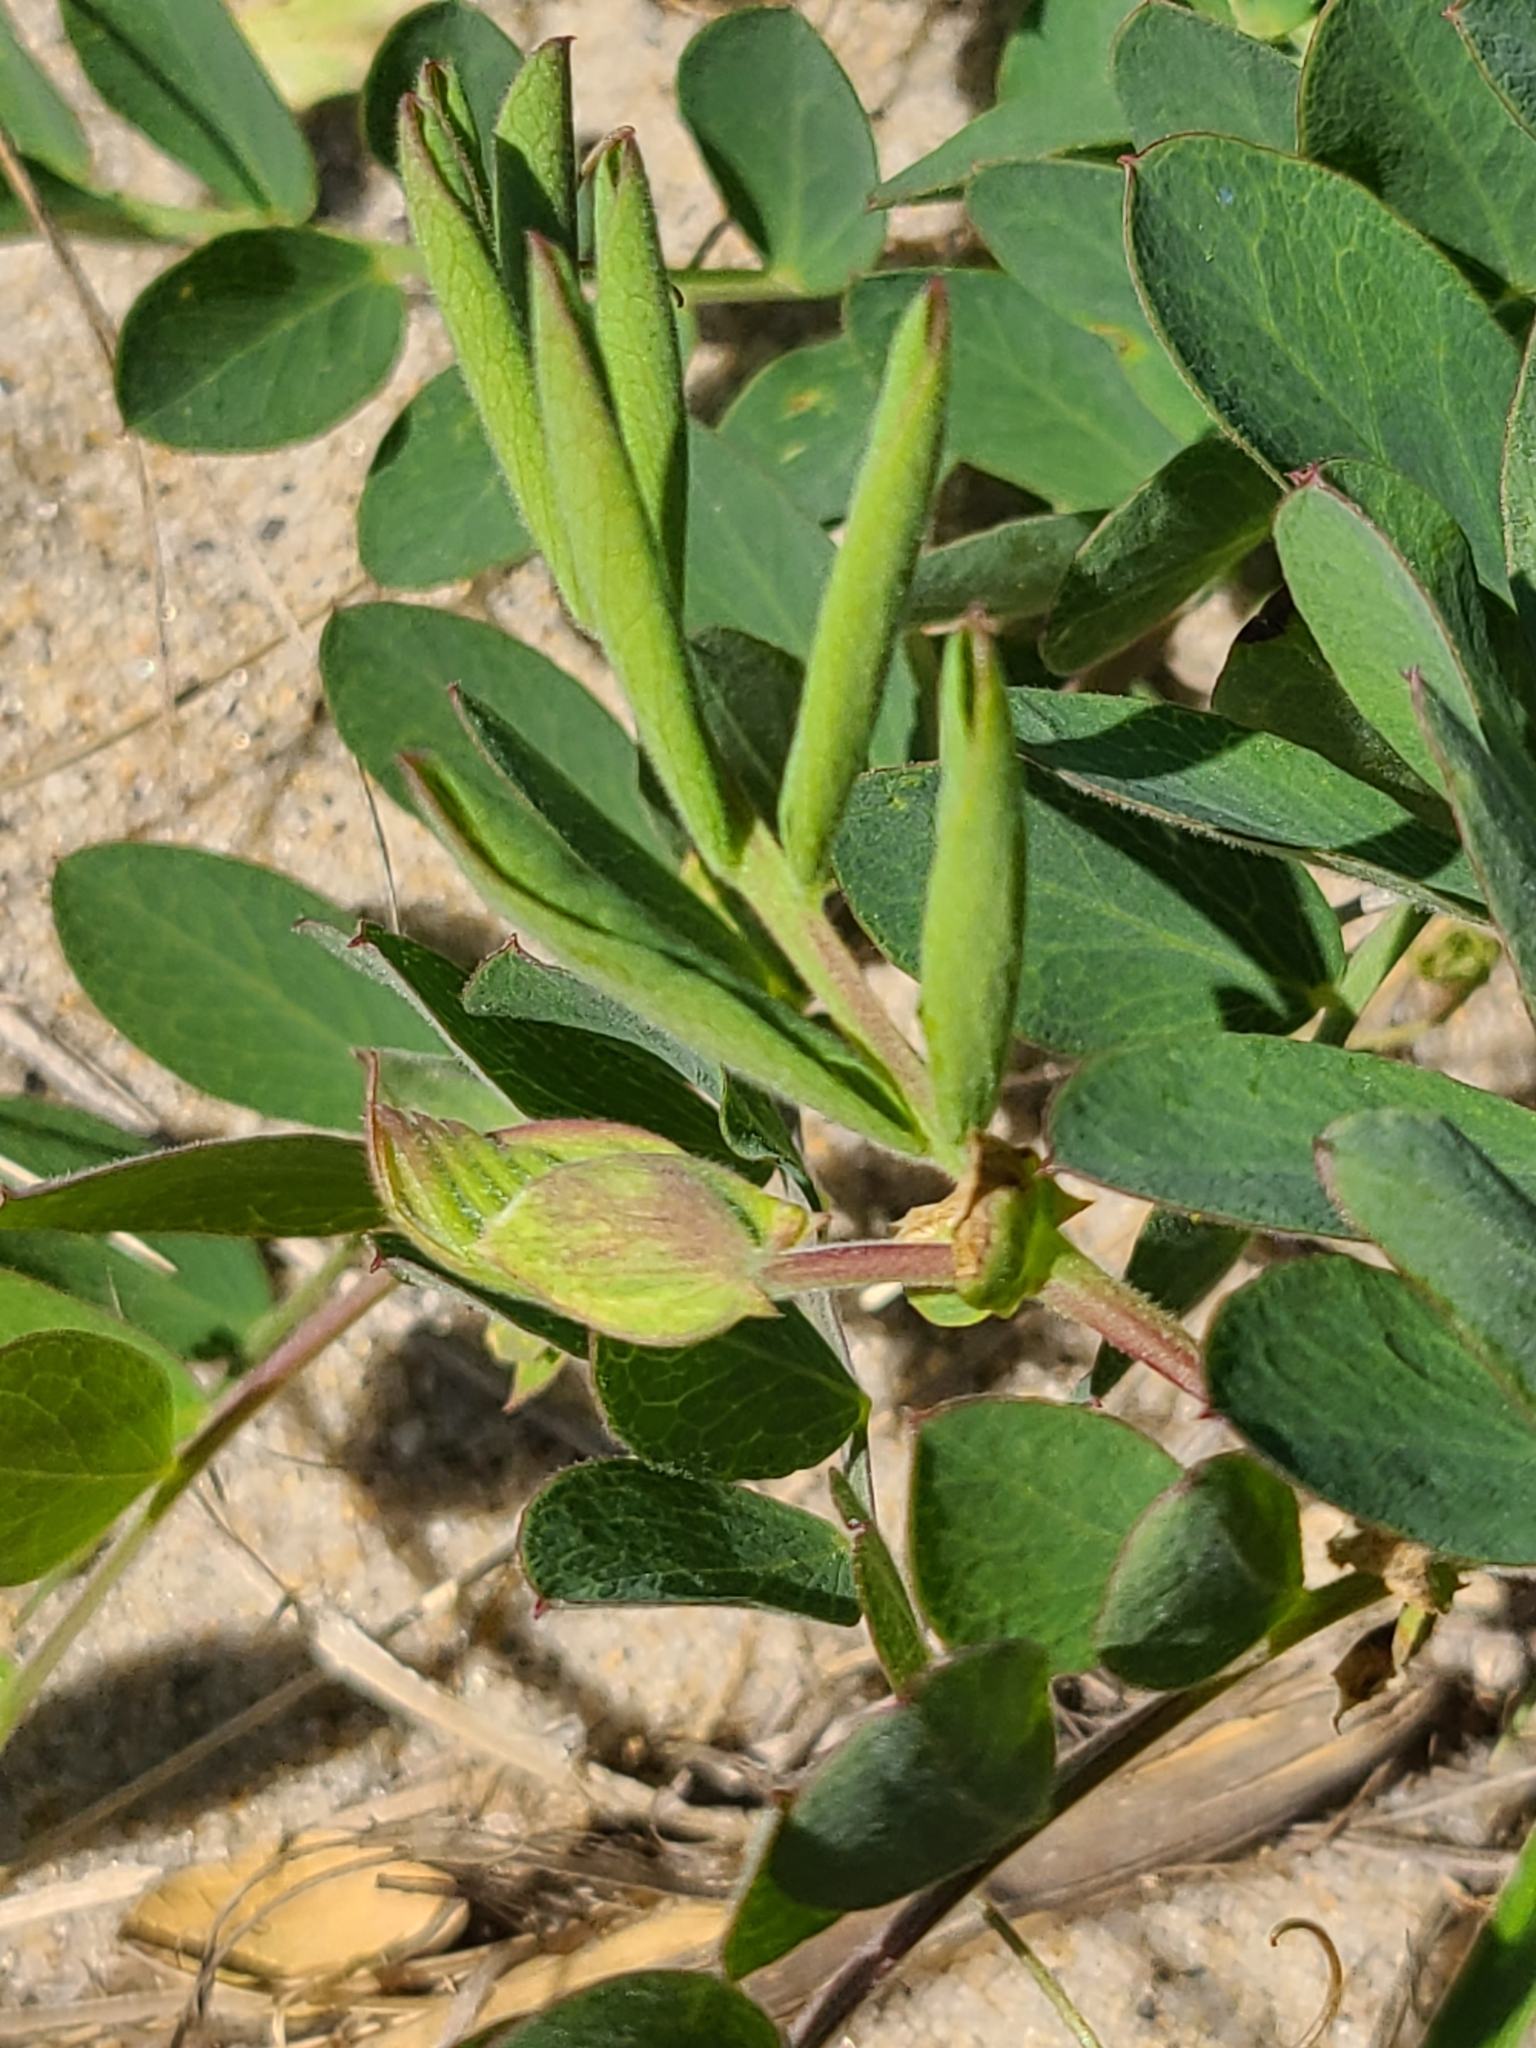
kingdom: Plantae
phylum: Tracheophyta
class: Magnoliopsida
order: Fabales
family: Fabaceae
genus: Lathyrus
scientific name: Lathyrus japonicus
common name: Sea pea
